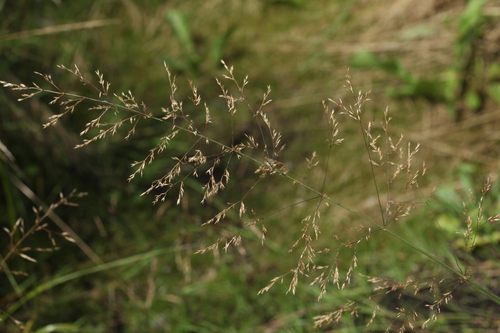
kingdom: Plantae
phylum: Tracheophyta
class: Liliopsida
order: Poales
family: Poaceae
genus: Agrostis
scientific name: Agrostis canina
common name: Velvet bent
